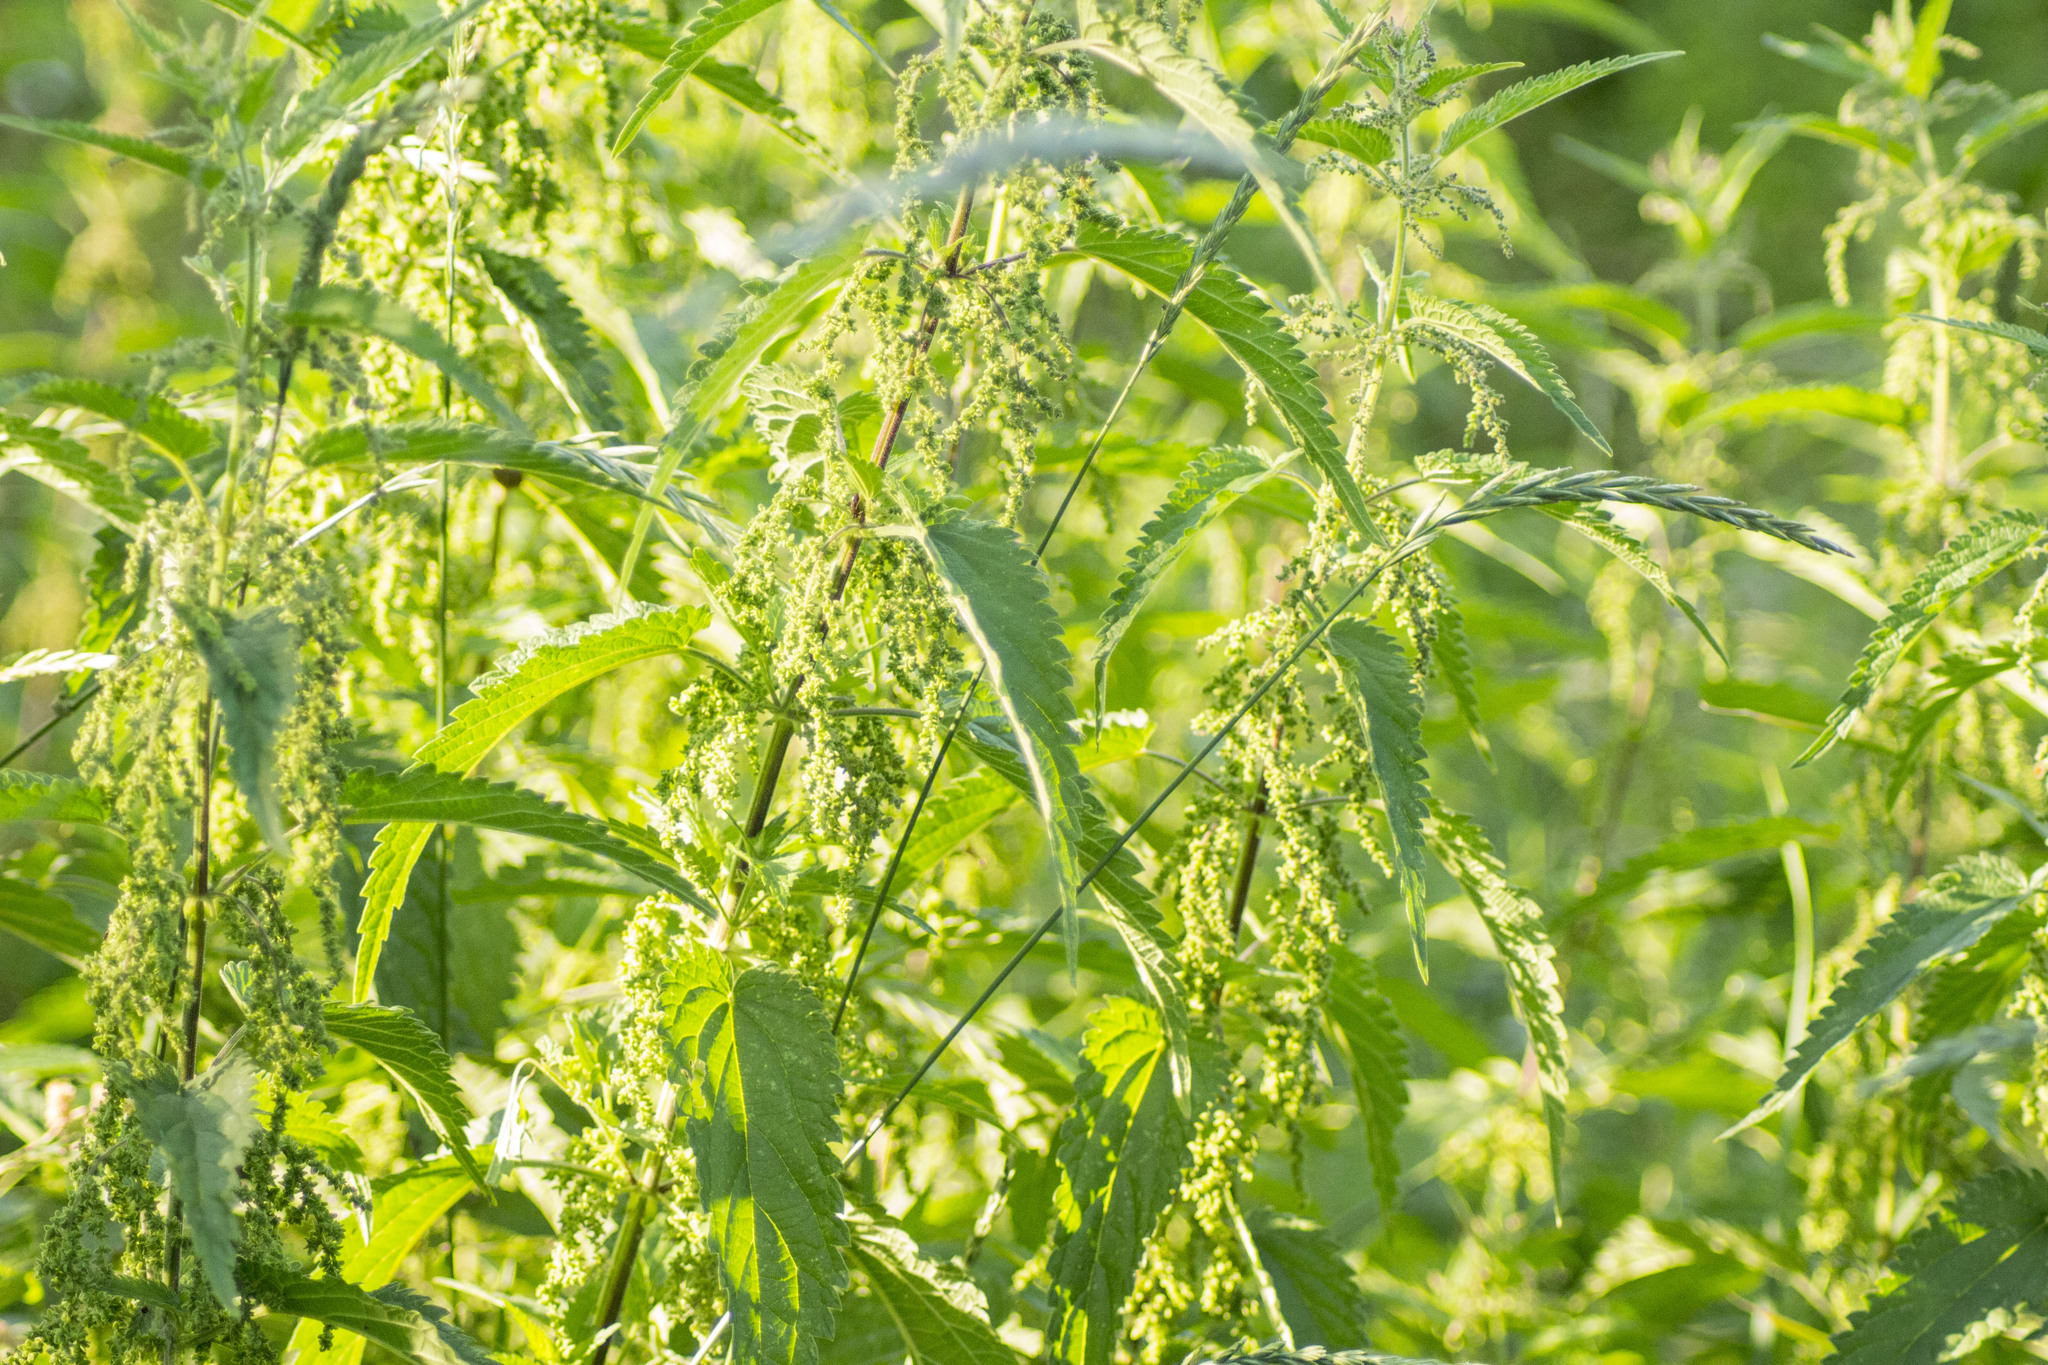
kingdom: Plantae
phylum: Tracheophyta
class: Magnoliopsida
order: Rosales
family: Urticaceae
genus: Urtica
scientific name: Urtica dioica
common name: Common nettle
